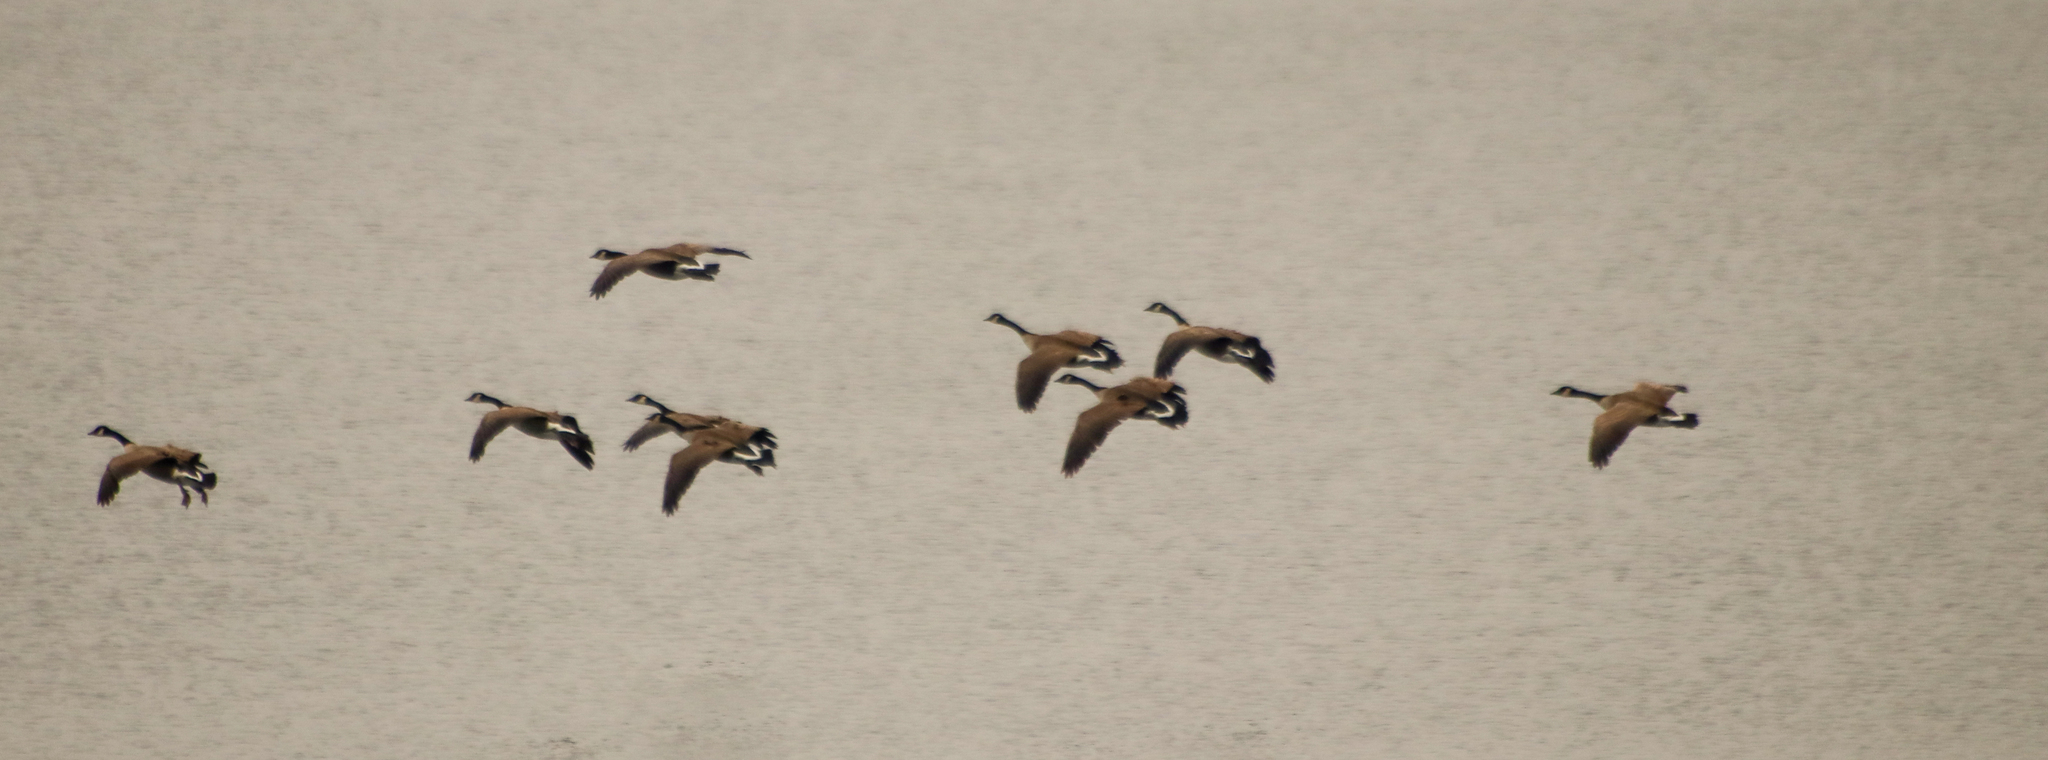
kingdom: Animalia
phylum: Chordata
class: Aves
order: Anseriformes
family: Anatidae
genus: Branta
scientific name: Branta canadensis
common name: Canada goose
